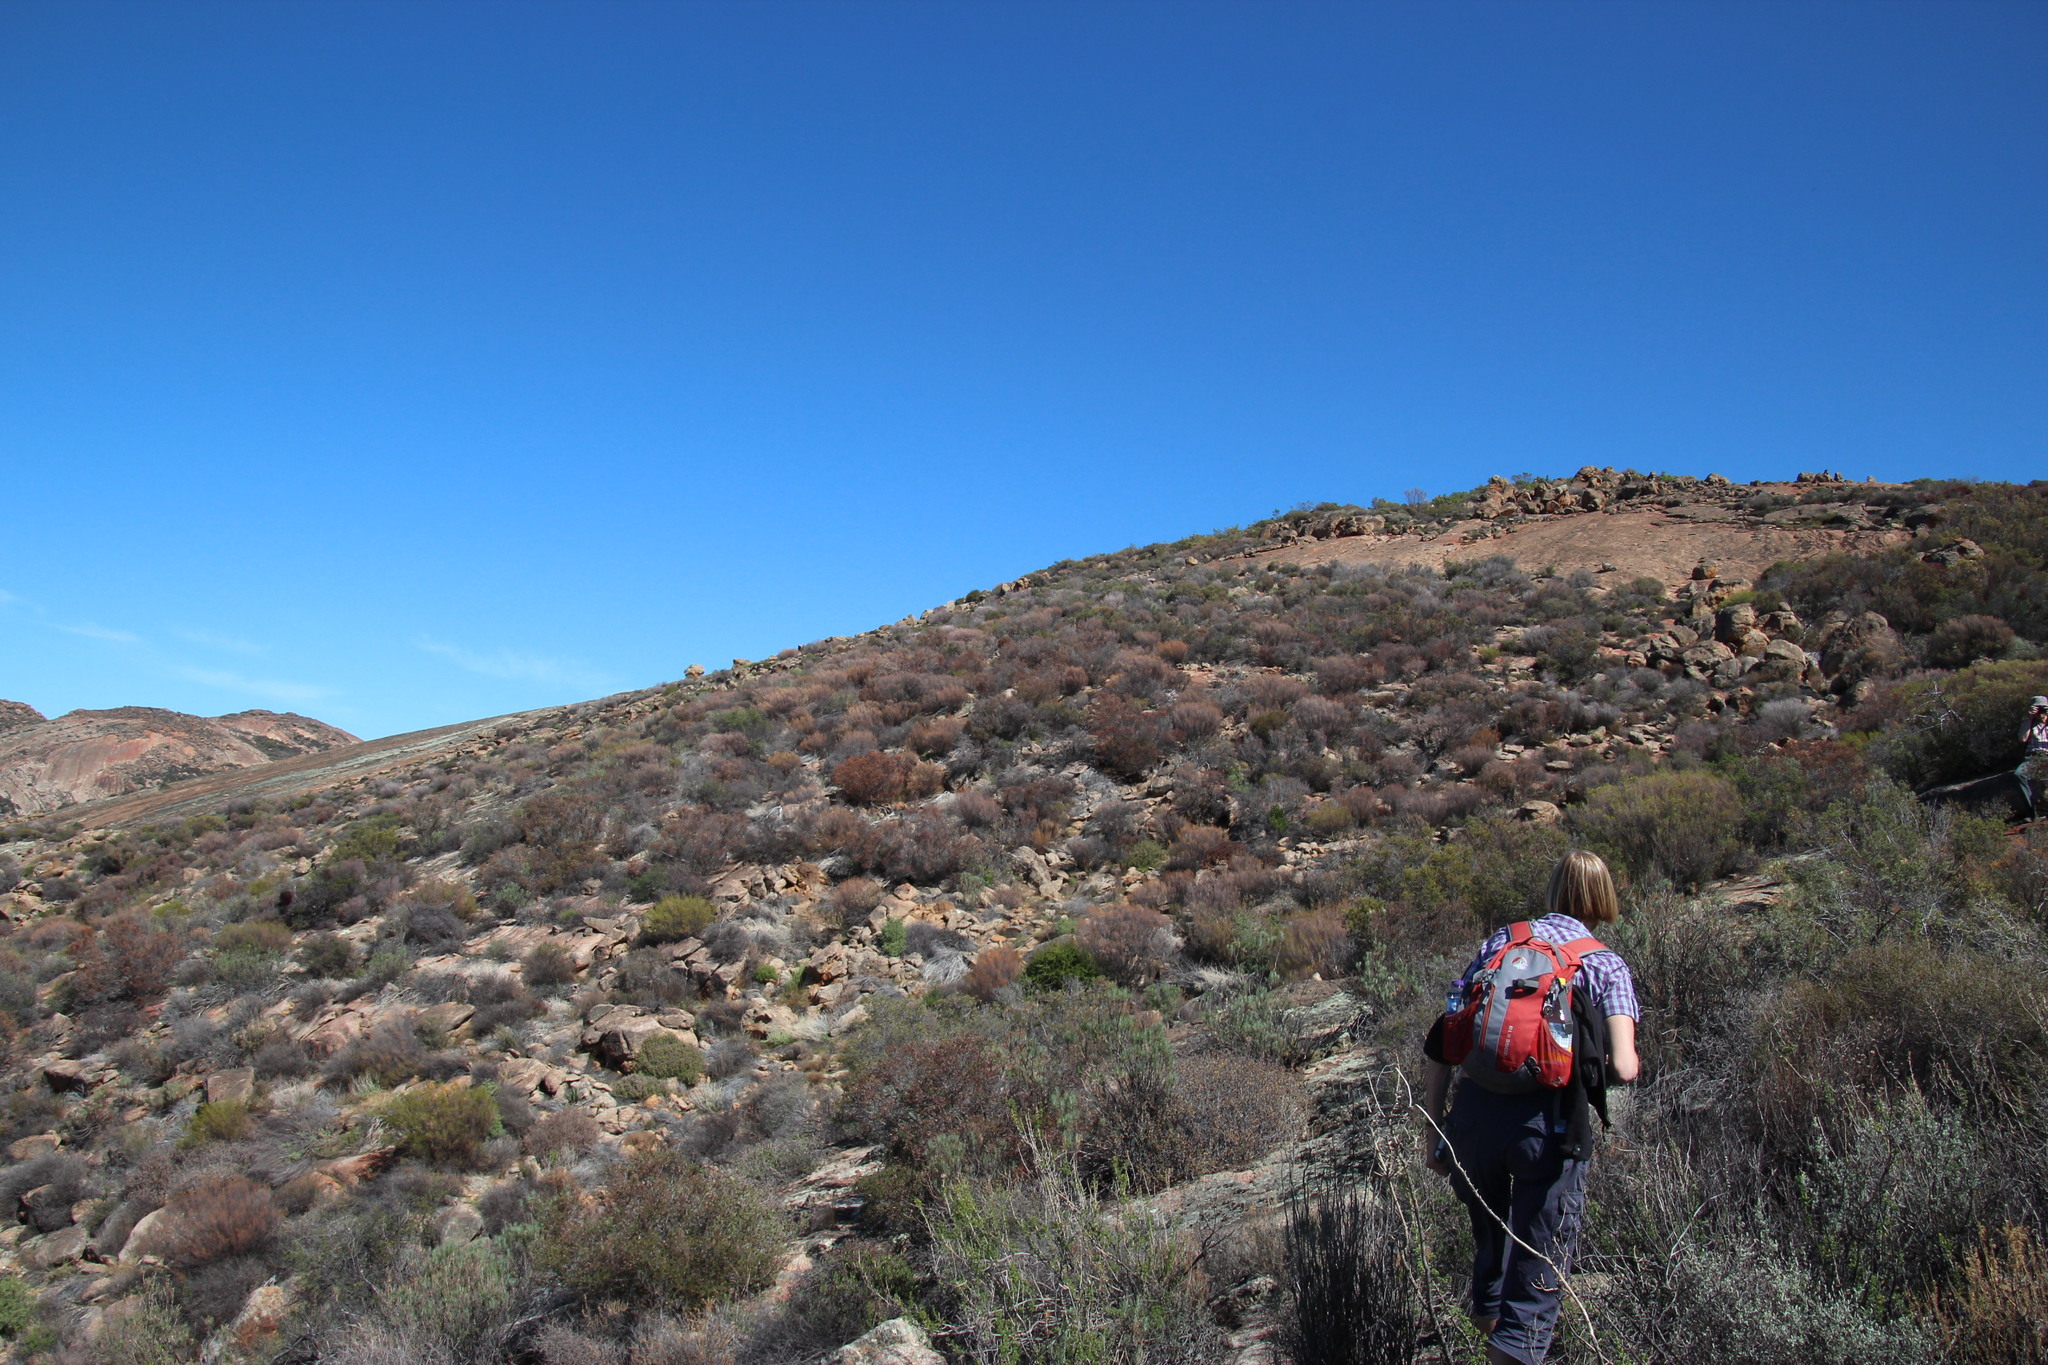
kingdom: Plantae
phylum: Tracheophyta
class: Magnoliopsida
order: Sapindales
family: Rutaceae
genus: Diosma
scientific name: Diosma acmaeophylla
